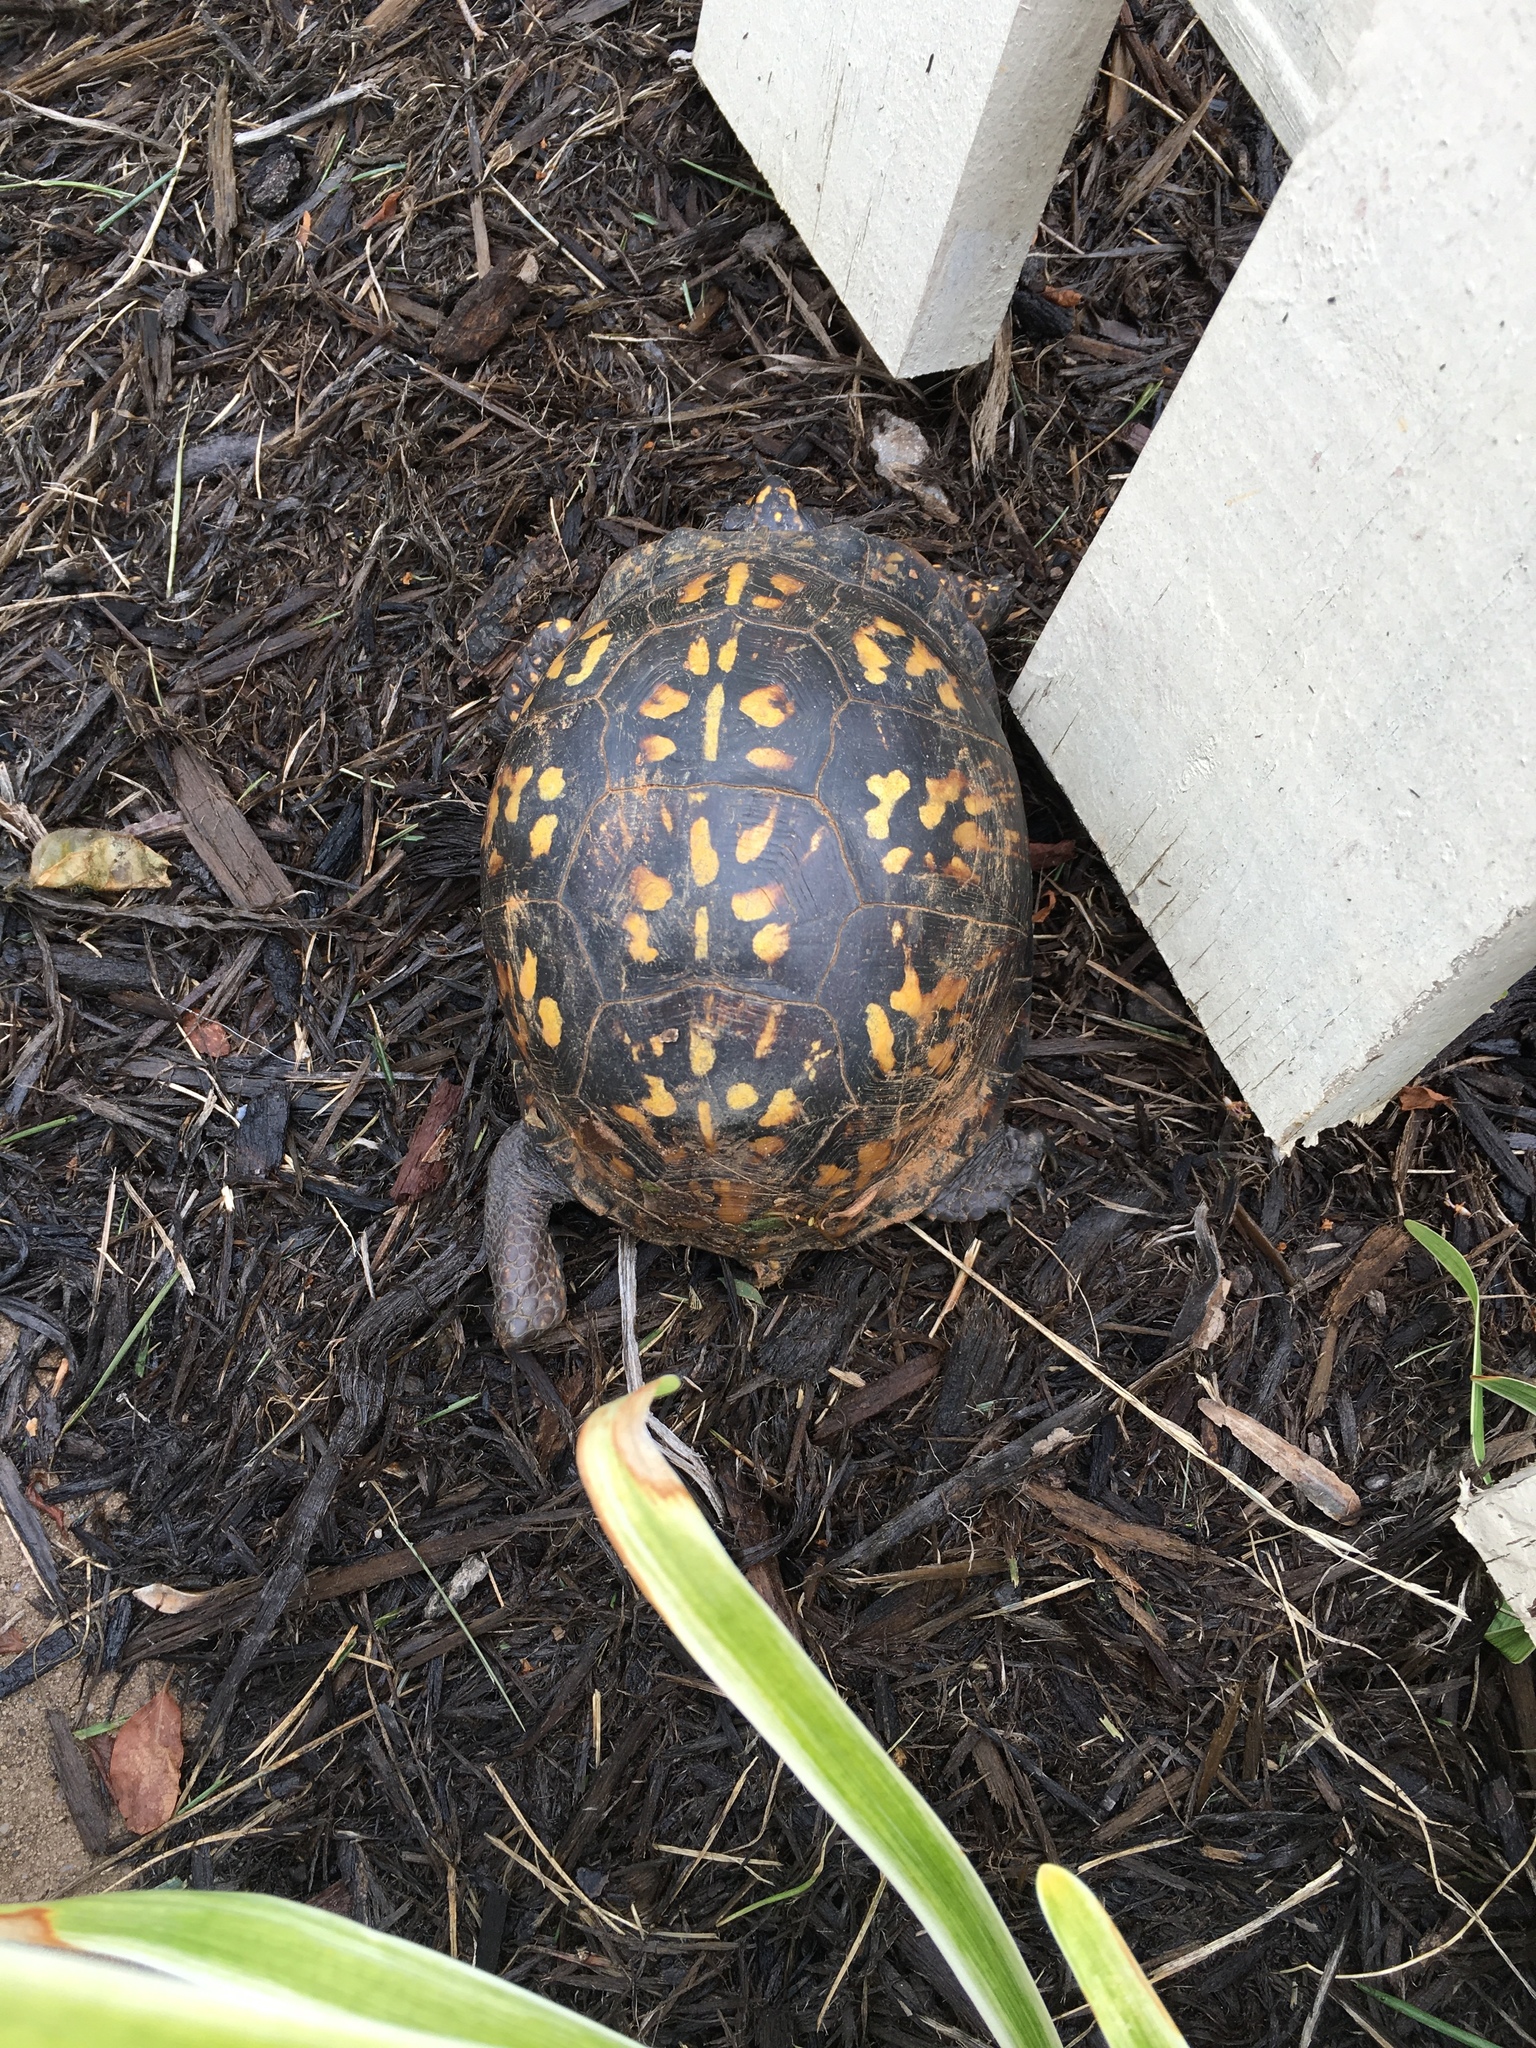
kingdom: Animalia
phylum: Chordata
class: Testudines
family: Emydidae
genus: Terrapene
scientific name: Terrapene carolina
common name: Common box turtle
